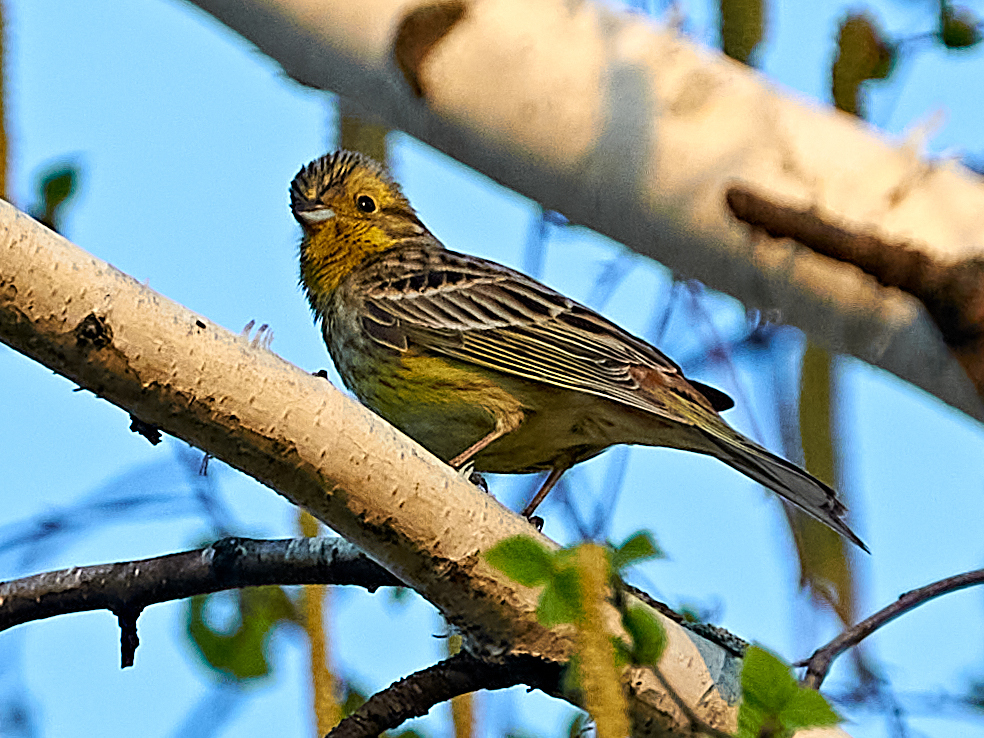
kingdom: Animalia
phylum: Chordata
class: Aves
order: Passeriformes
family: Emberizidae
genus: Emberiza
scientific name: Emberiza citrinella
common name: Yellowhammer
